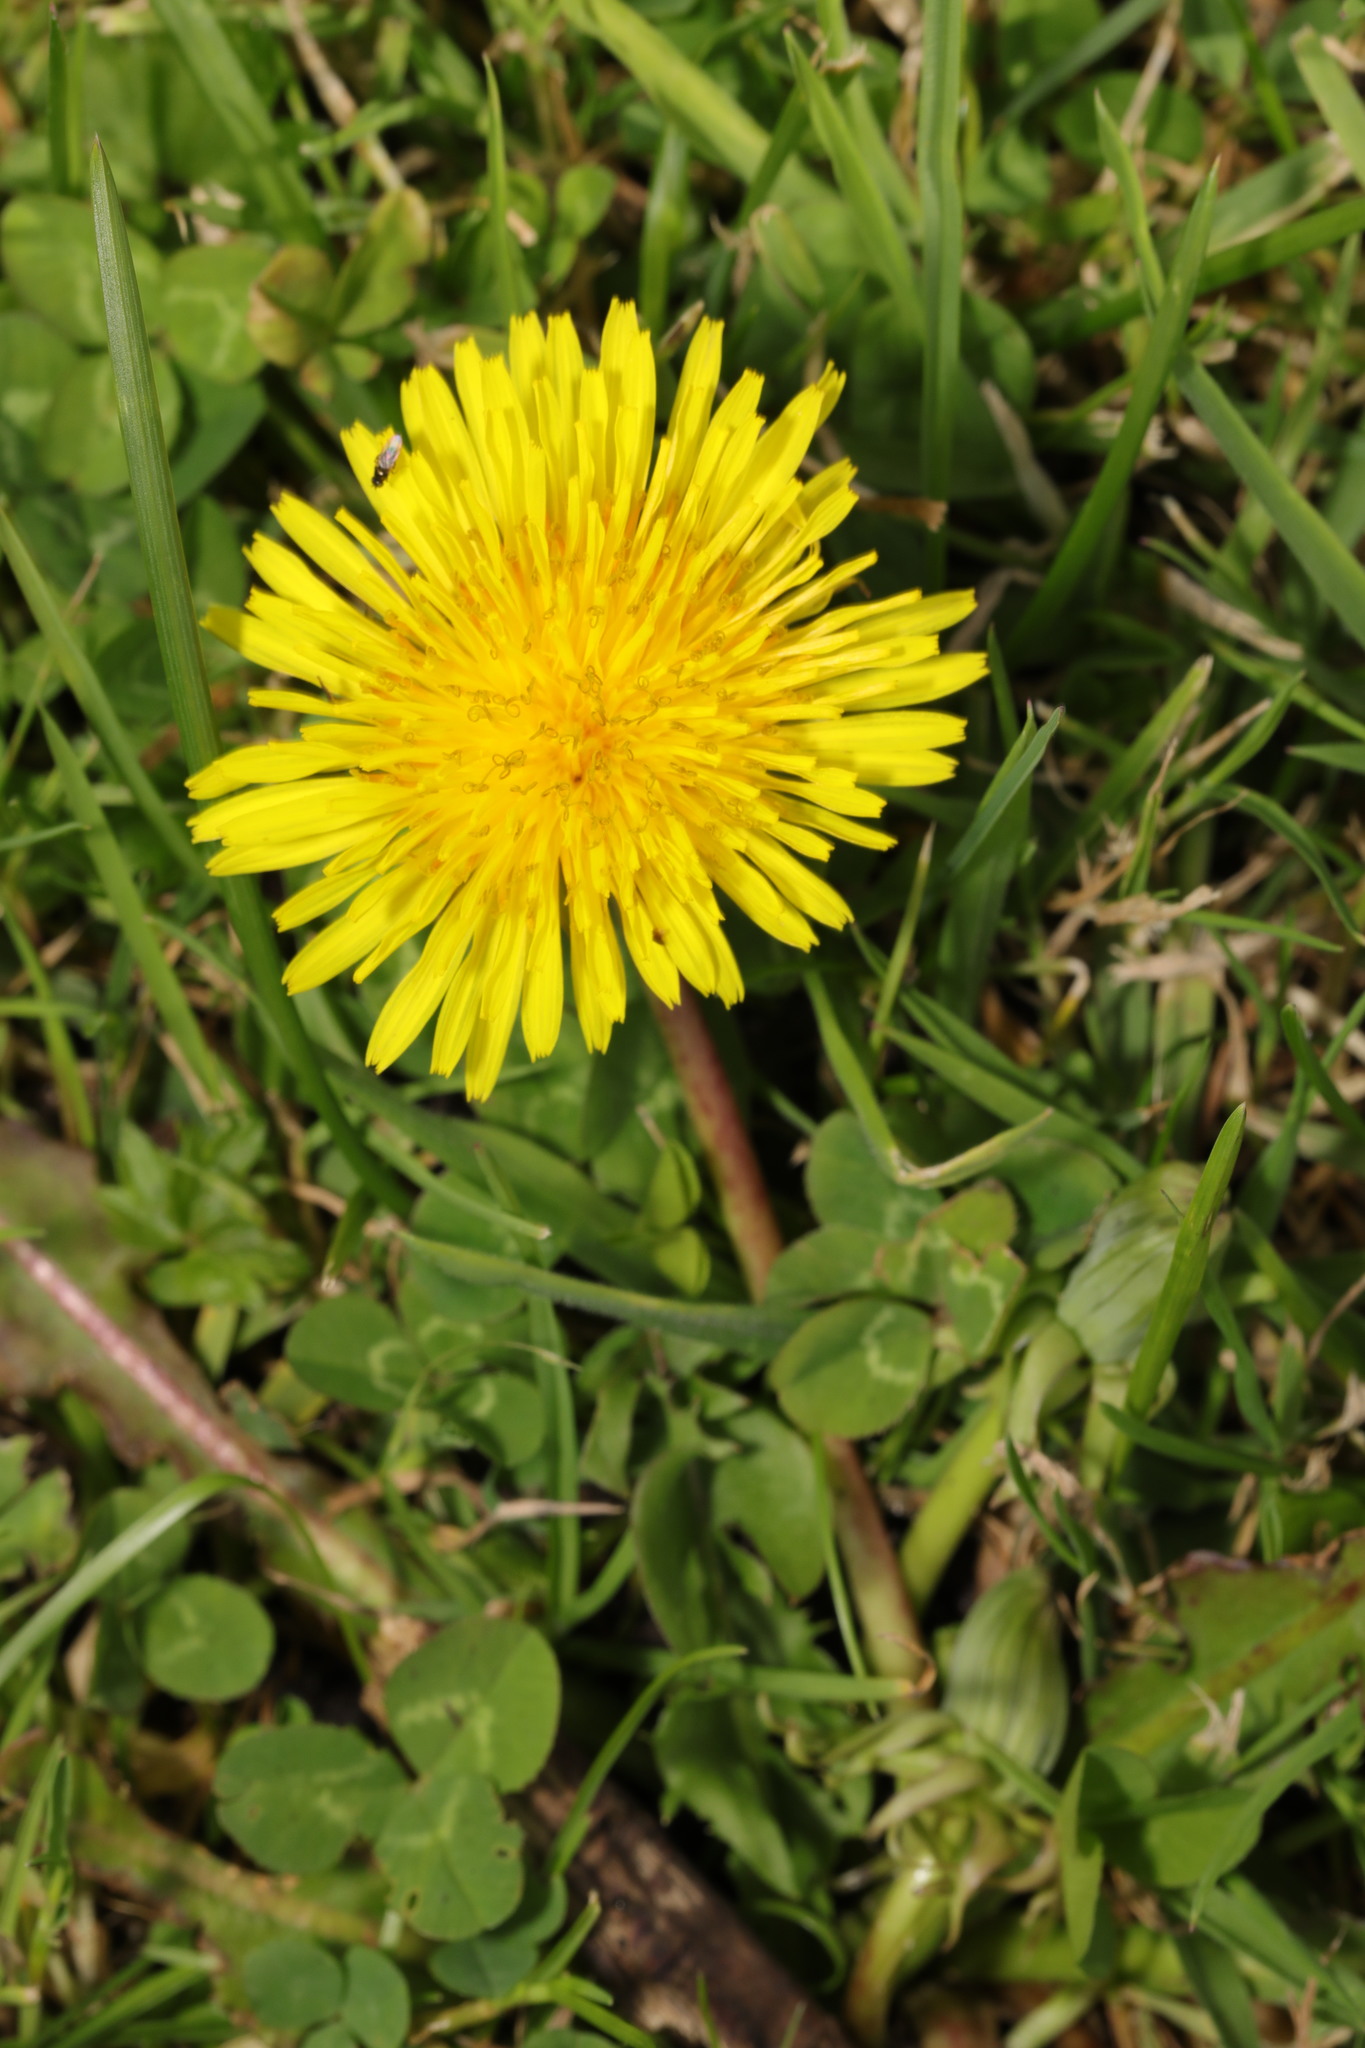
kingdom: Plantae
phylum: Tracheophyta
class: Magnoliopsida
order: Asterales
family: Asteraceae
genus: Taraxacum
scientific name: Taraxacum officinale
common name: Common dandelion
